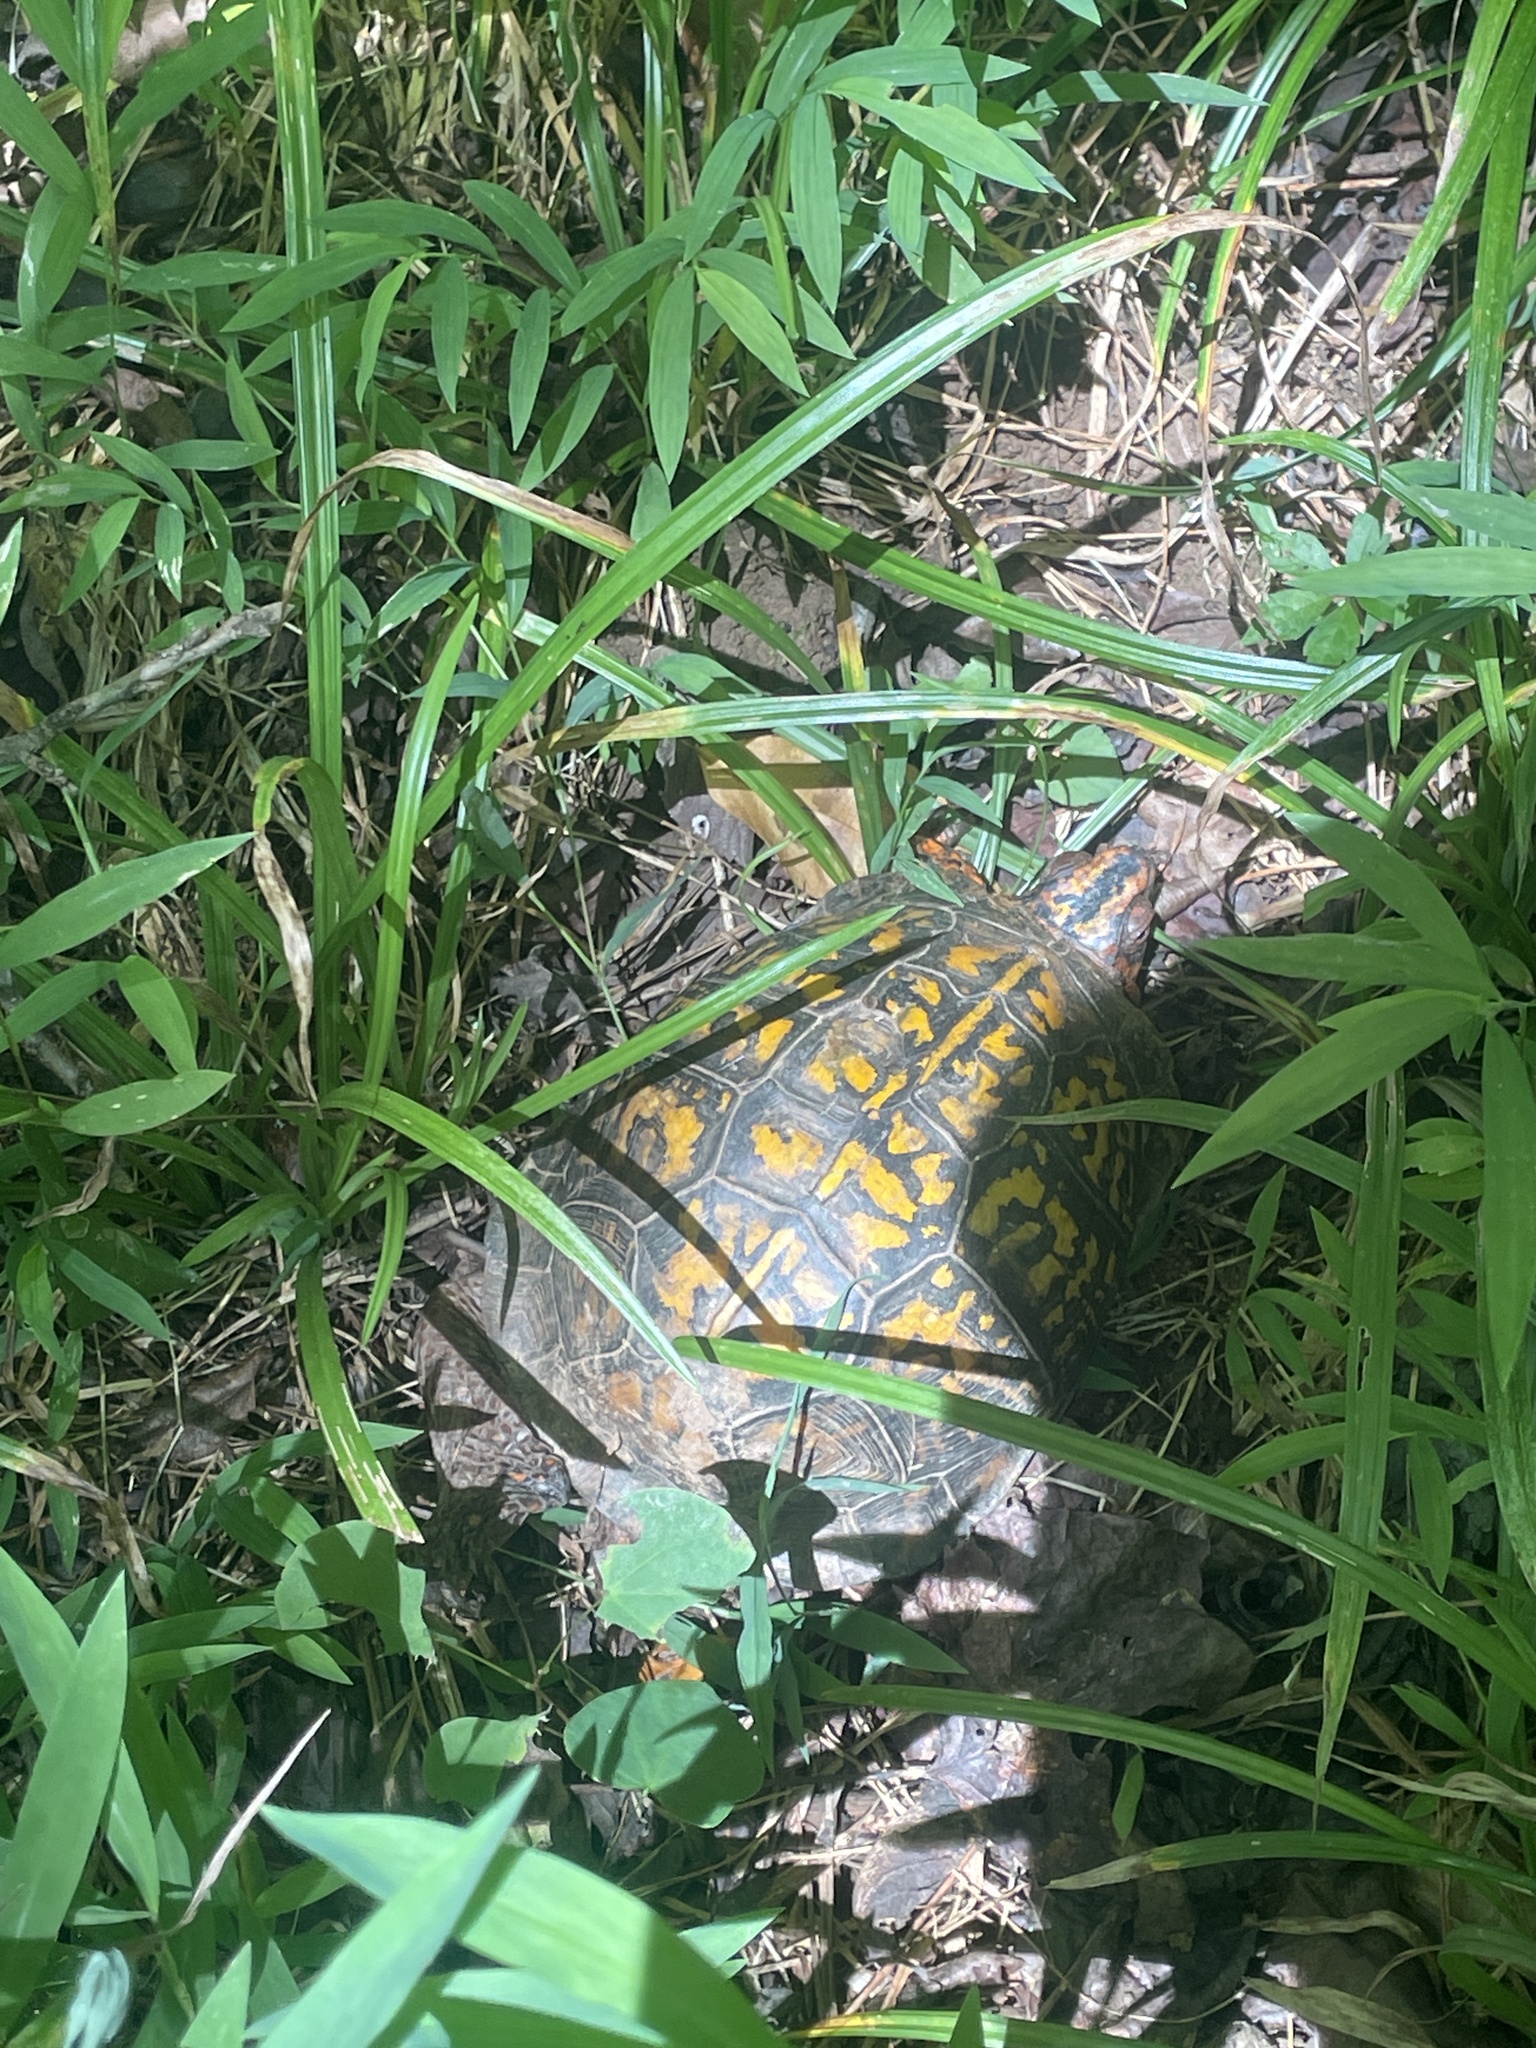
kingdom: Animalia
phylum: Chordata
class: Testudines
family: Emydidae
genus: Terrapene
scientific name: Terrapene carolina
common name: Common box turtle
